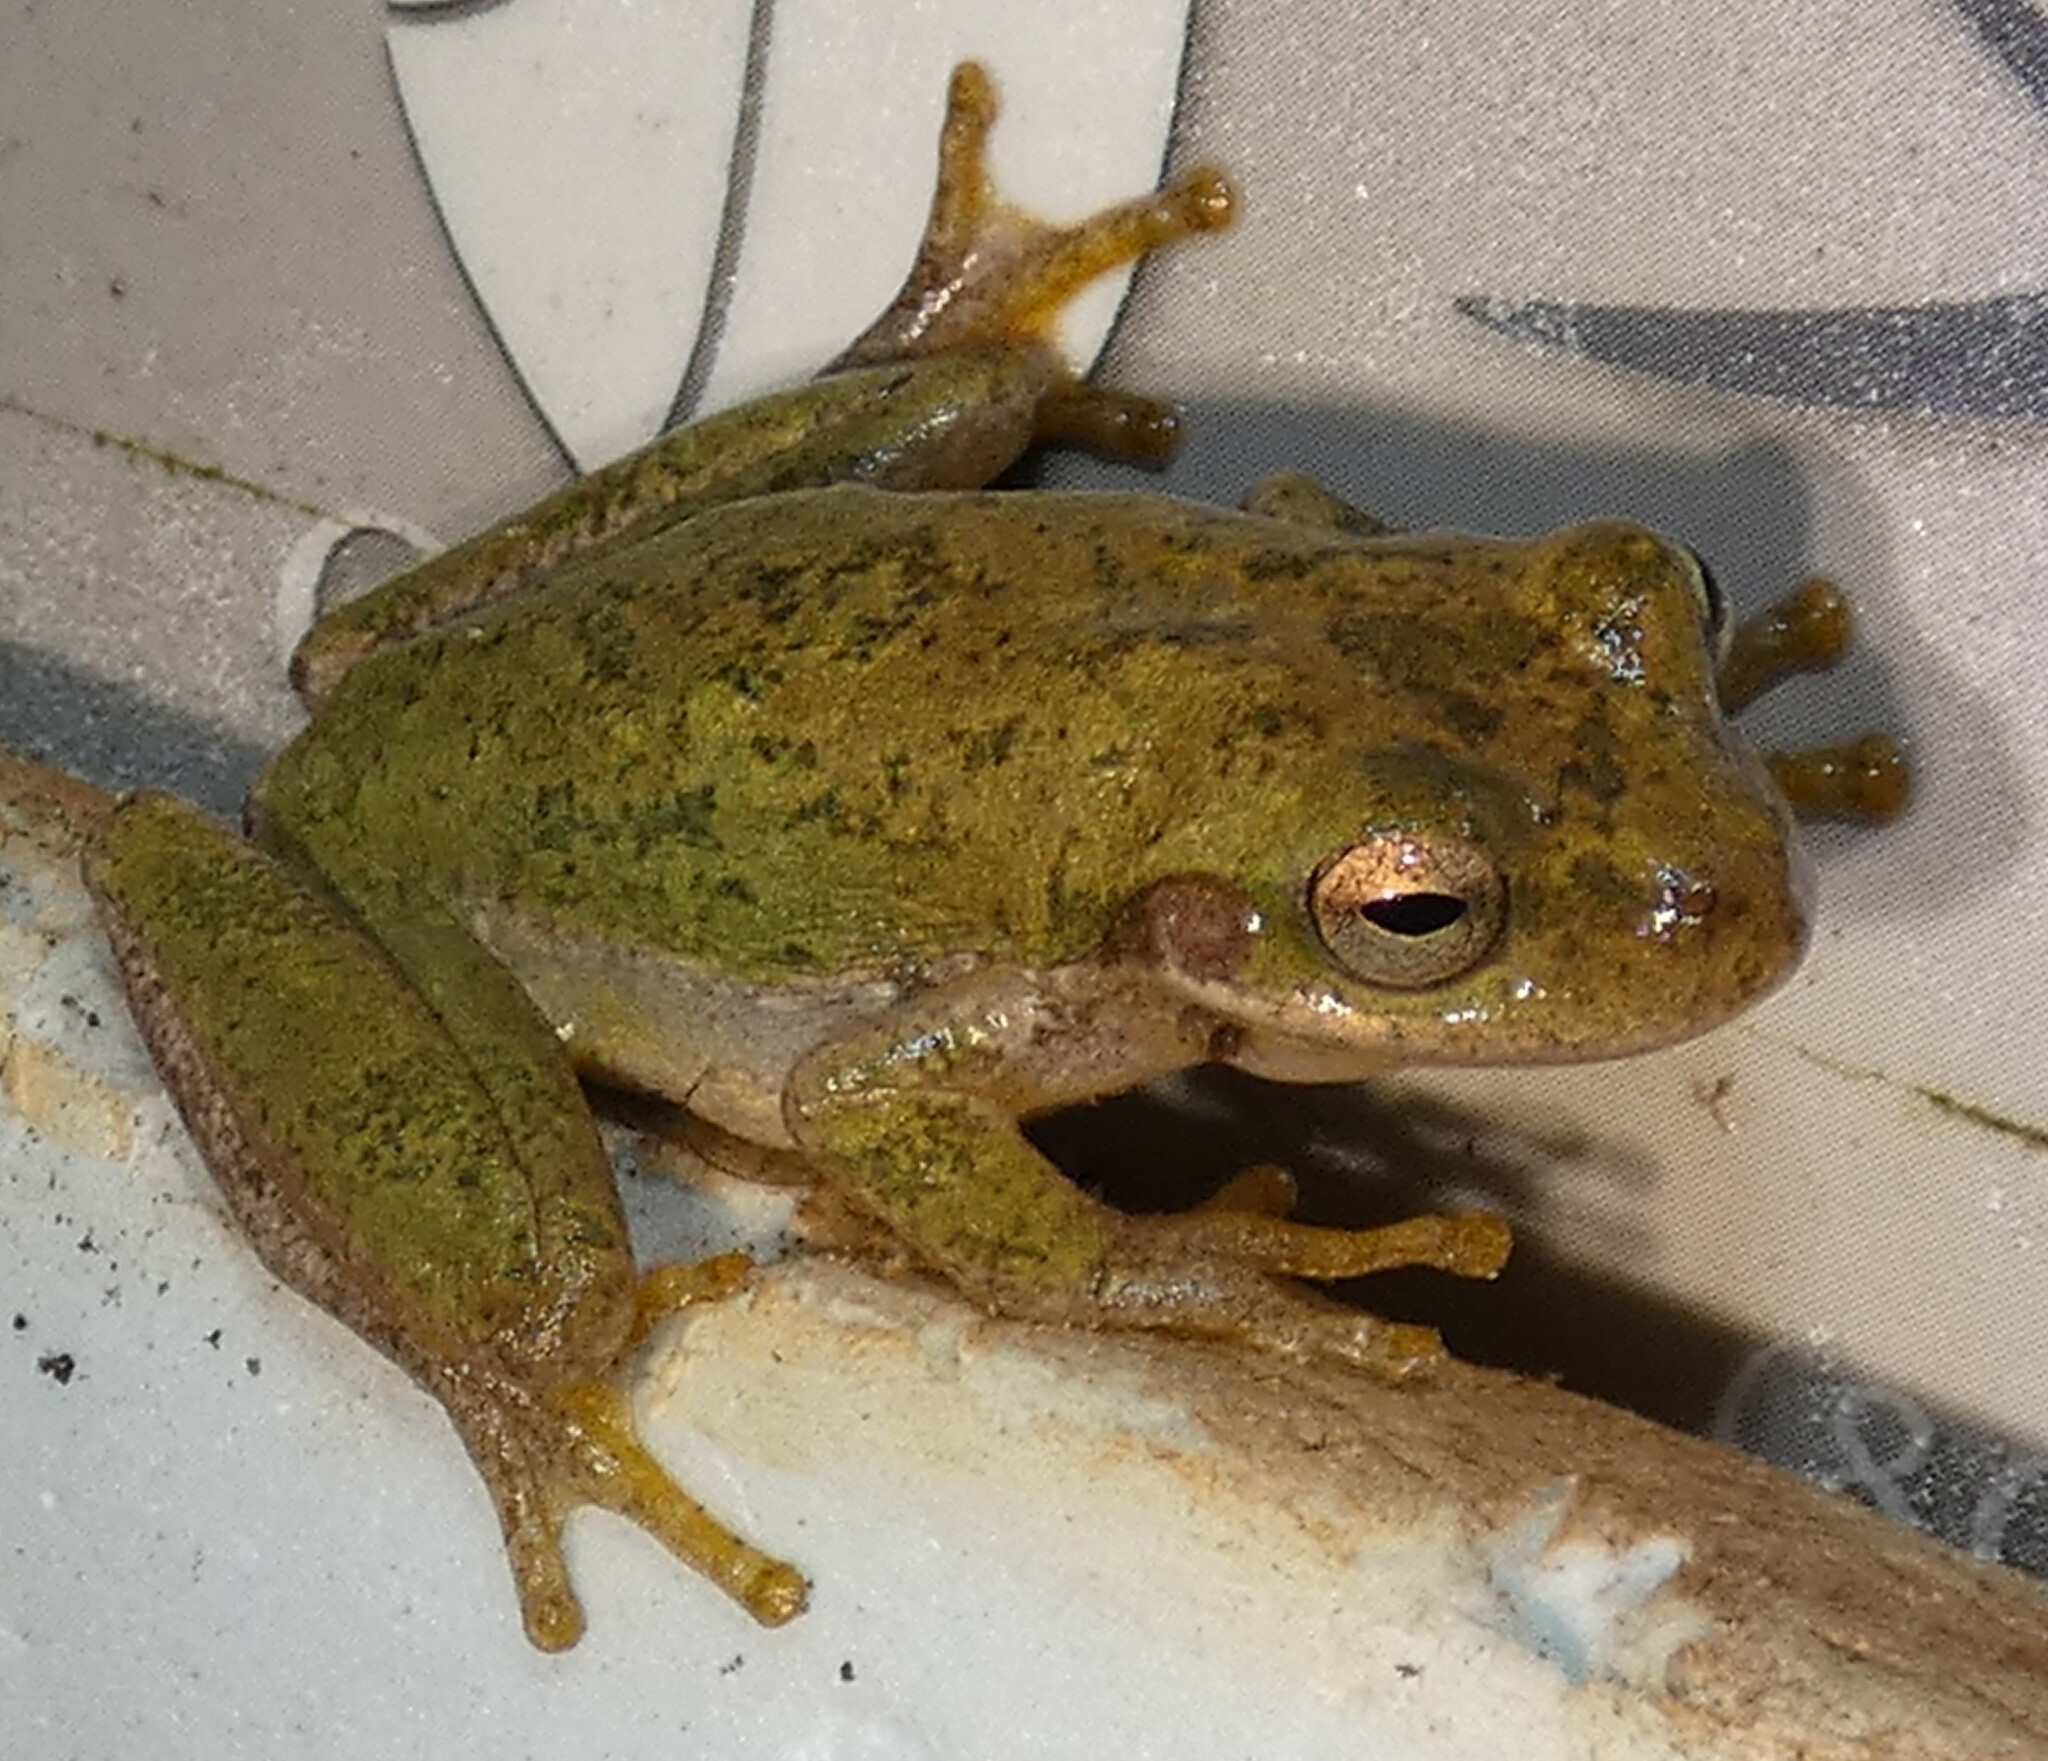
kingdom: Animalia
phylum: Chordata
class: Amphibia
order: Anura
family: Hylidae
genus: Dryophytes
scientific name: Dryophytes squirellus
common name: Squirrel treefrog
